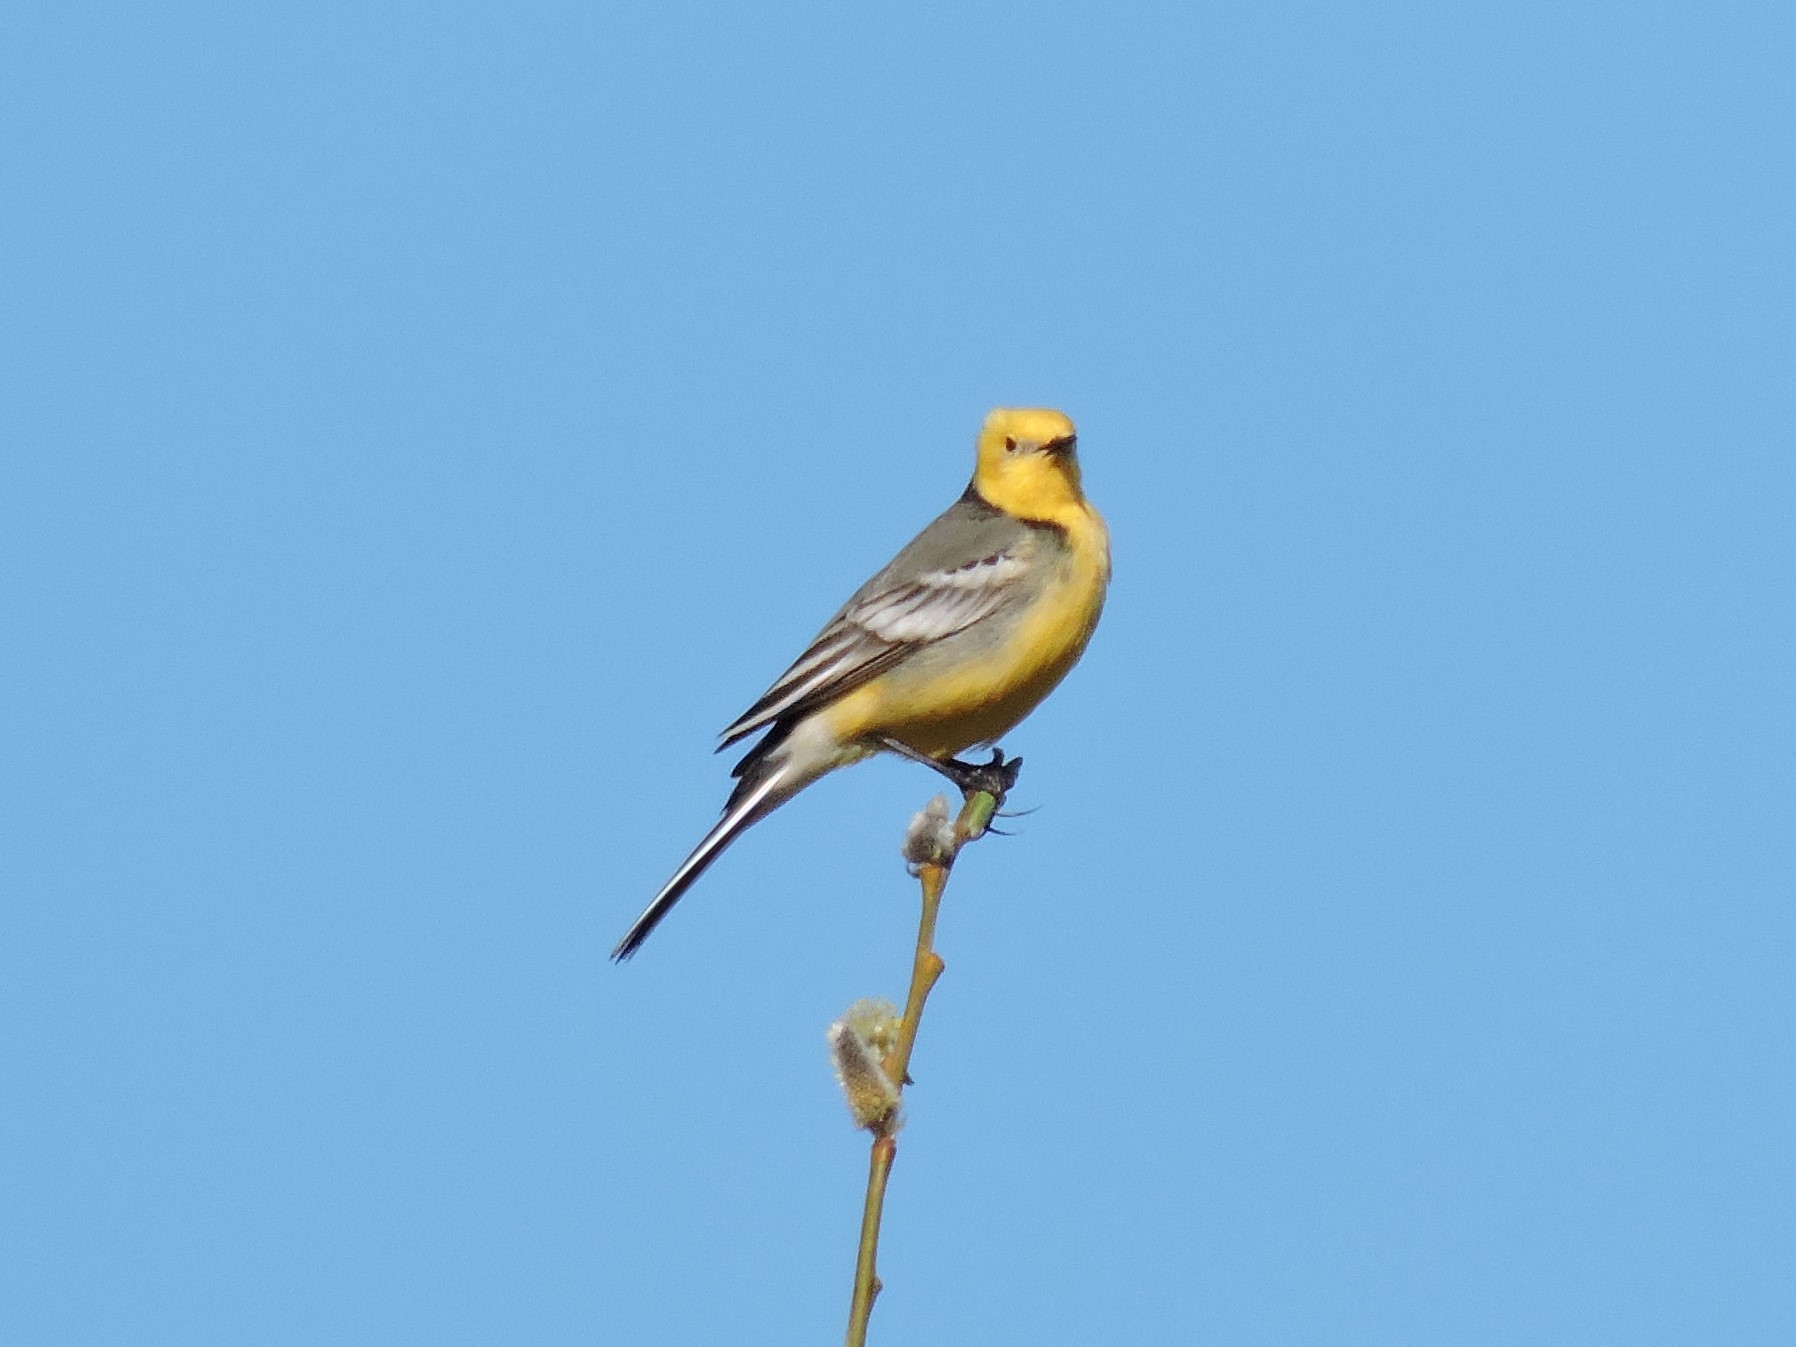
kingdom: Animalia
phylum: Chordata
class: Aves
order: Passeriformes
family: Motacillidae
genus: Motacilla
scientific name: Motacilla citreola
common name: Citrine wagtail
